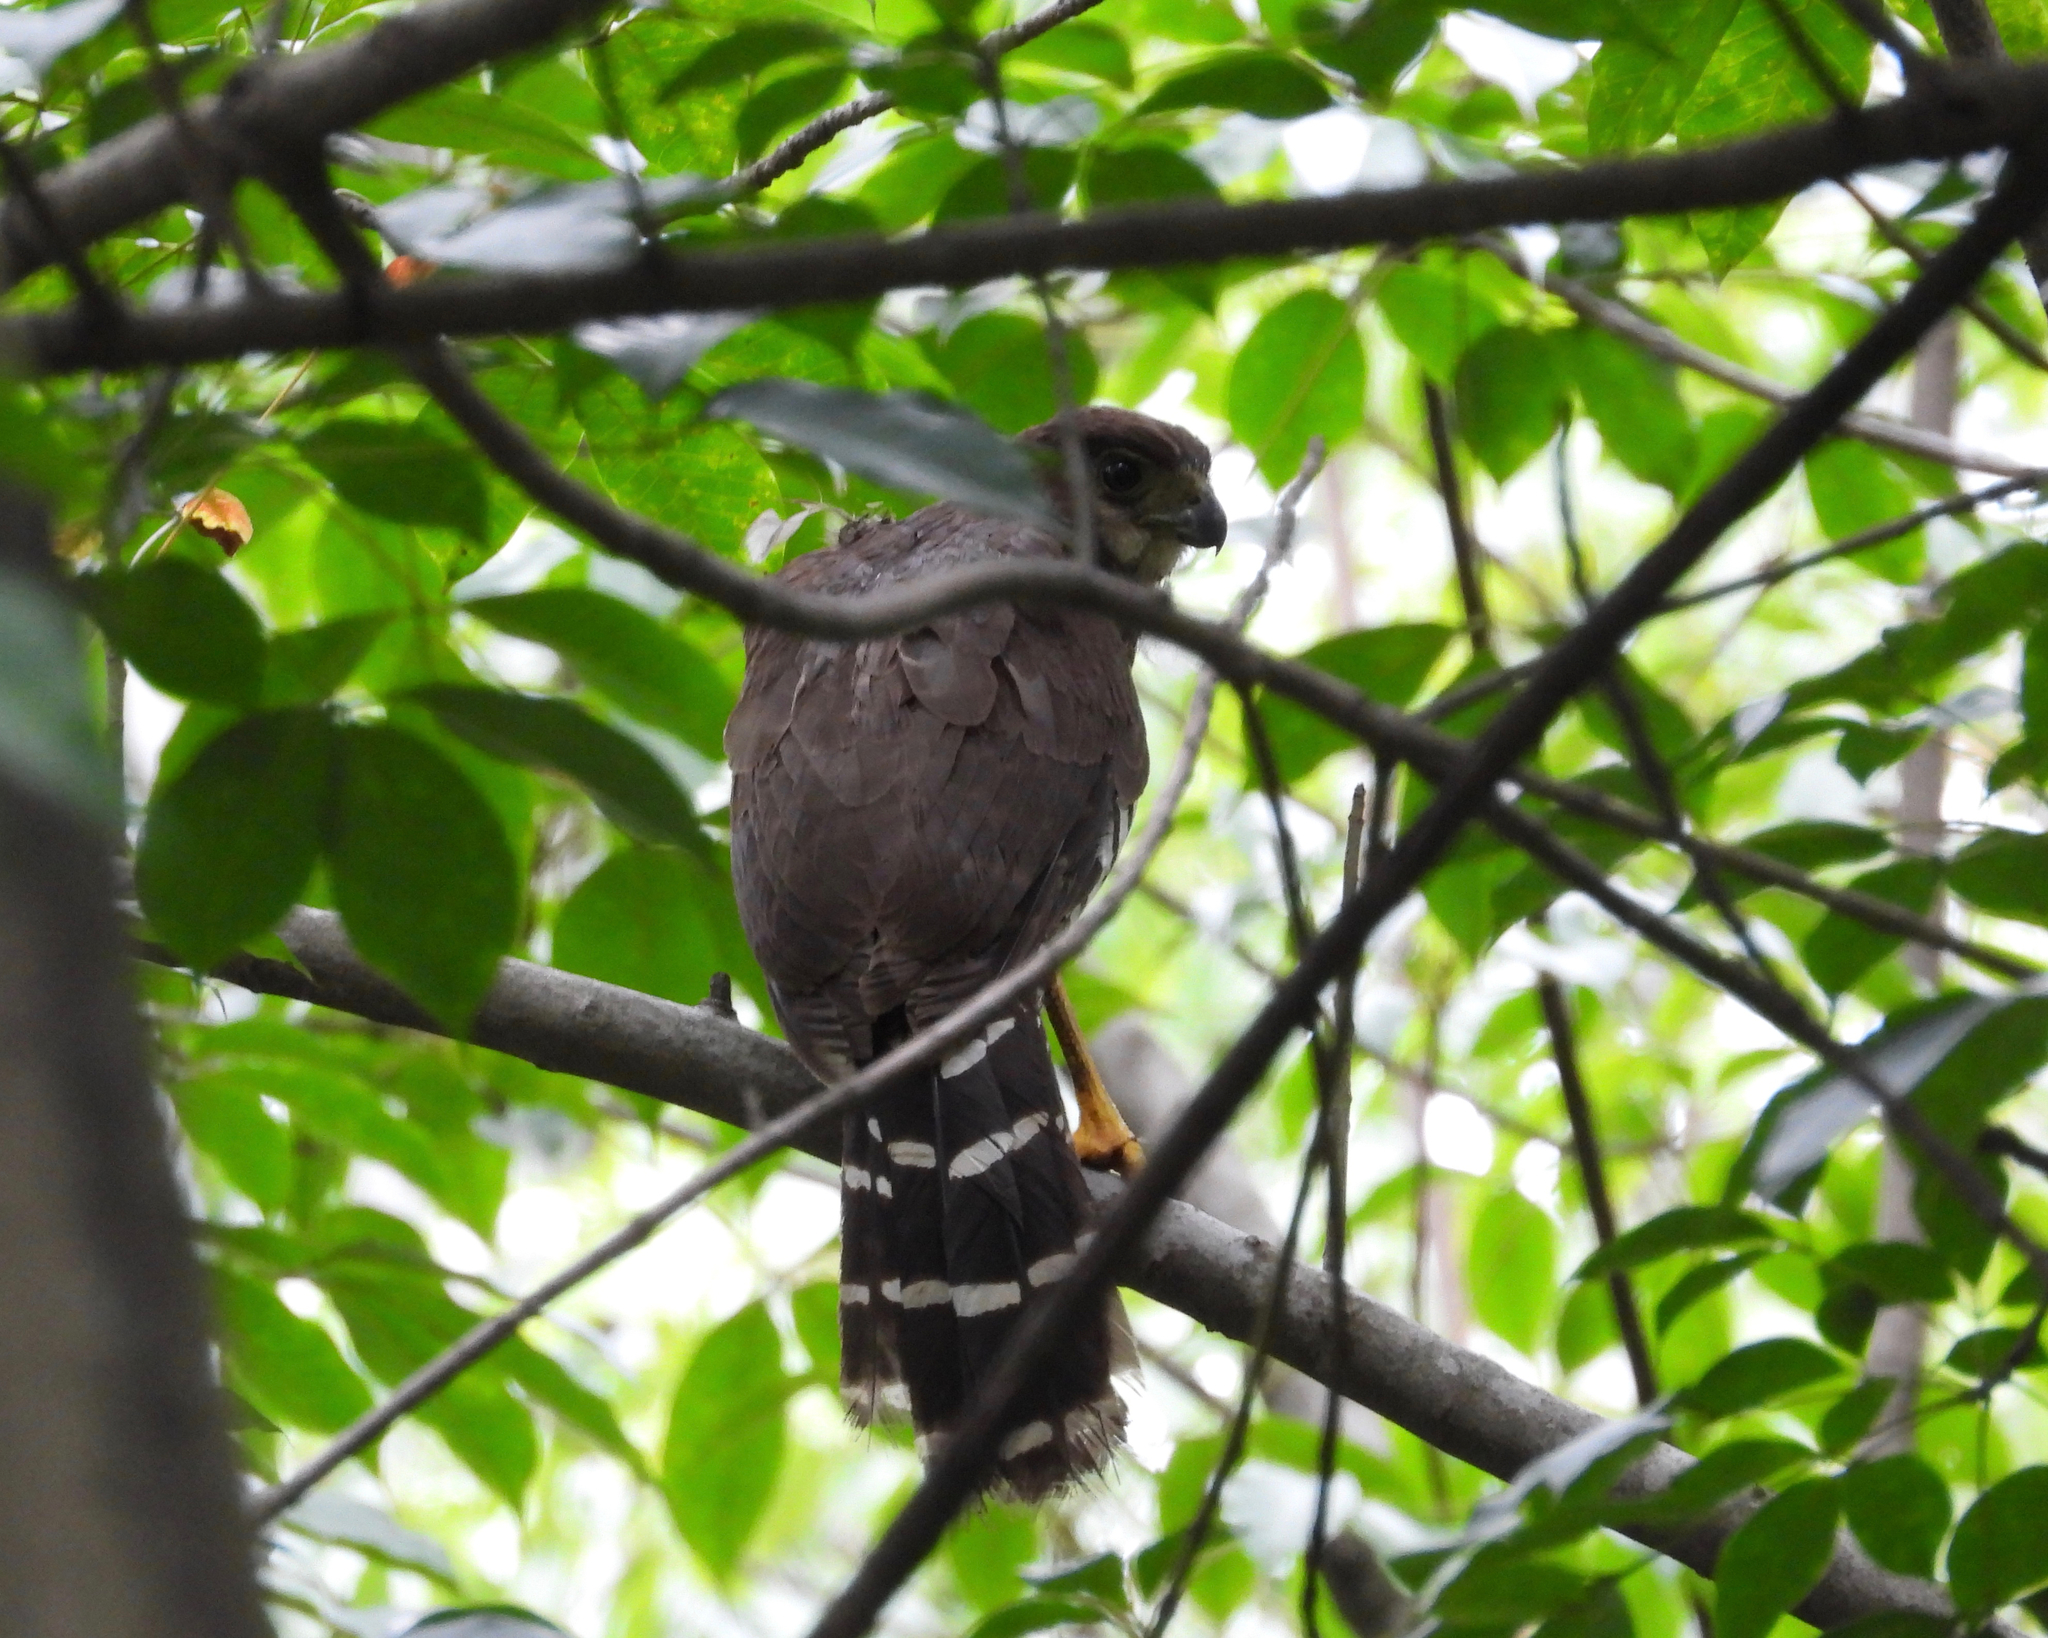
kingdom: Animalia
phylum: Chordata
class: Aves
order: Falconiformes
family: Falconidae
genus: Micrastur
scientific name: Micrastur semitorquatus
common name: Collared forest-falcon
